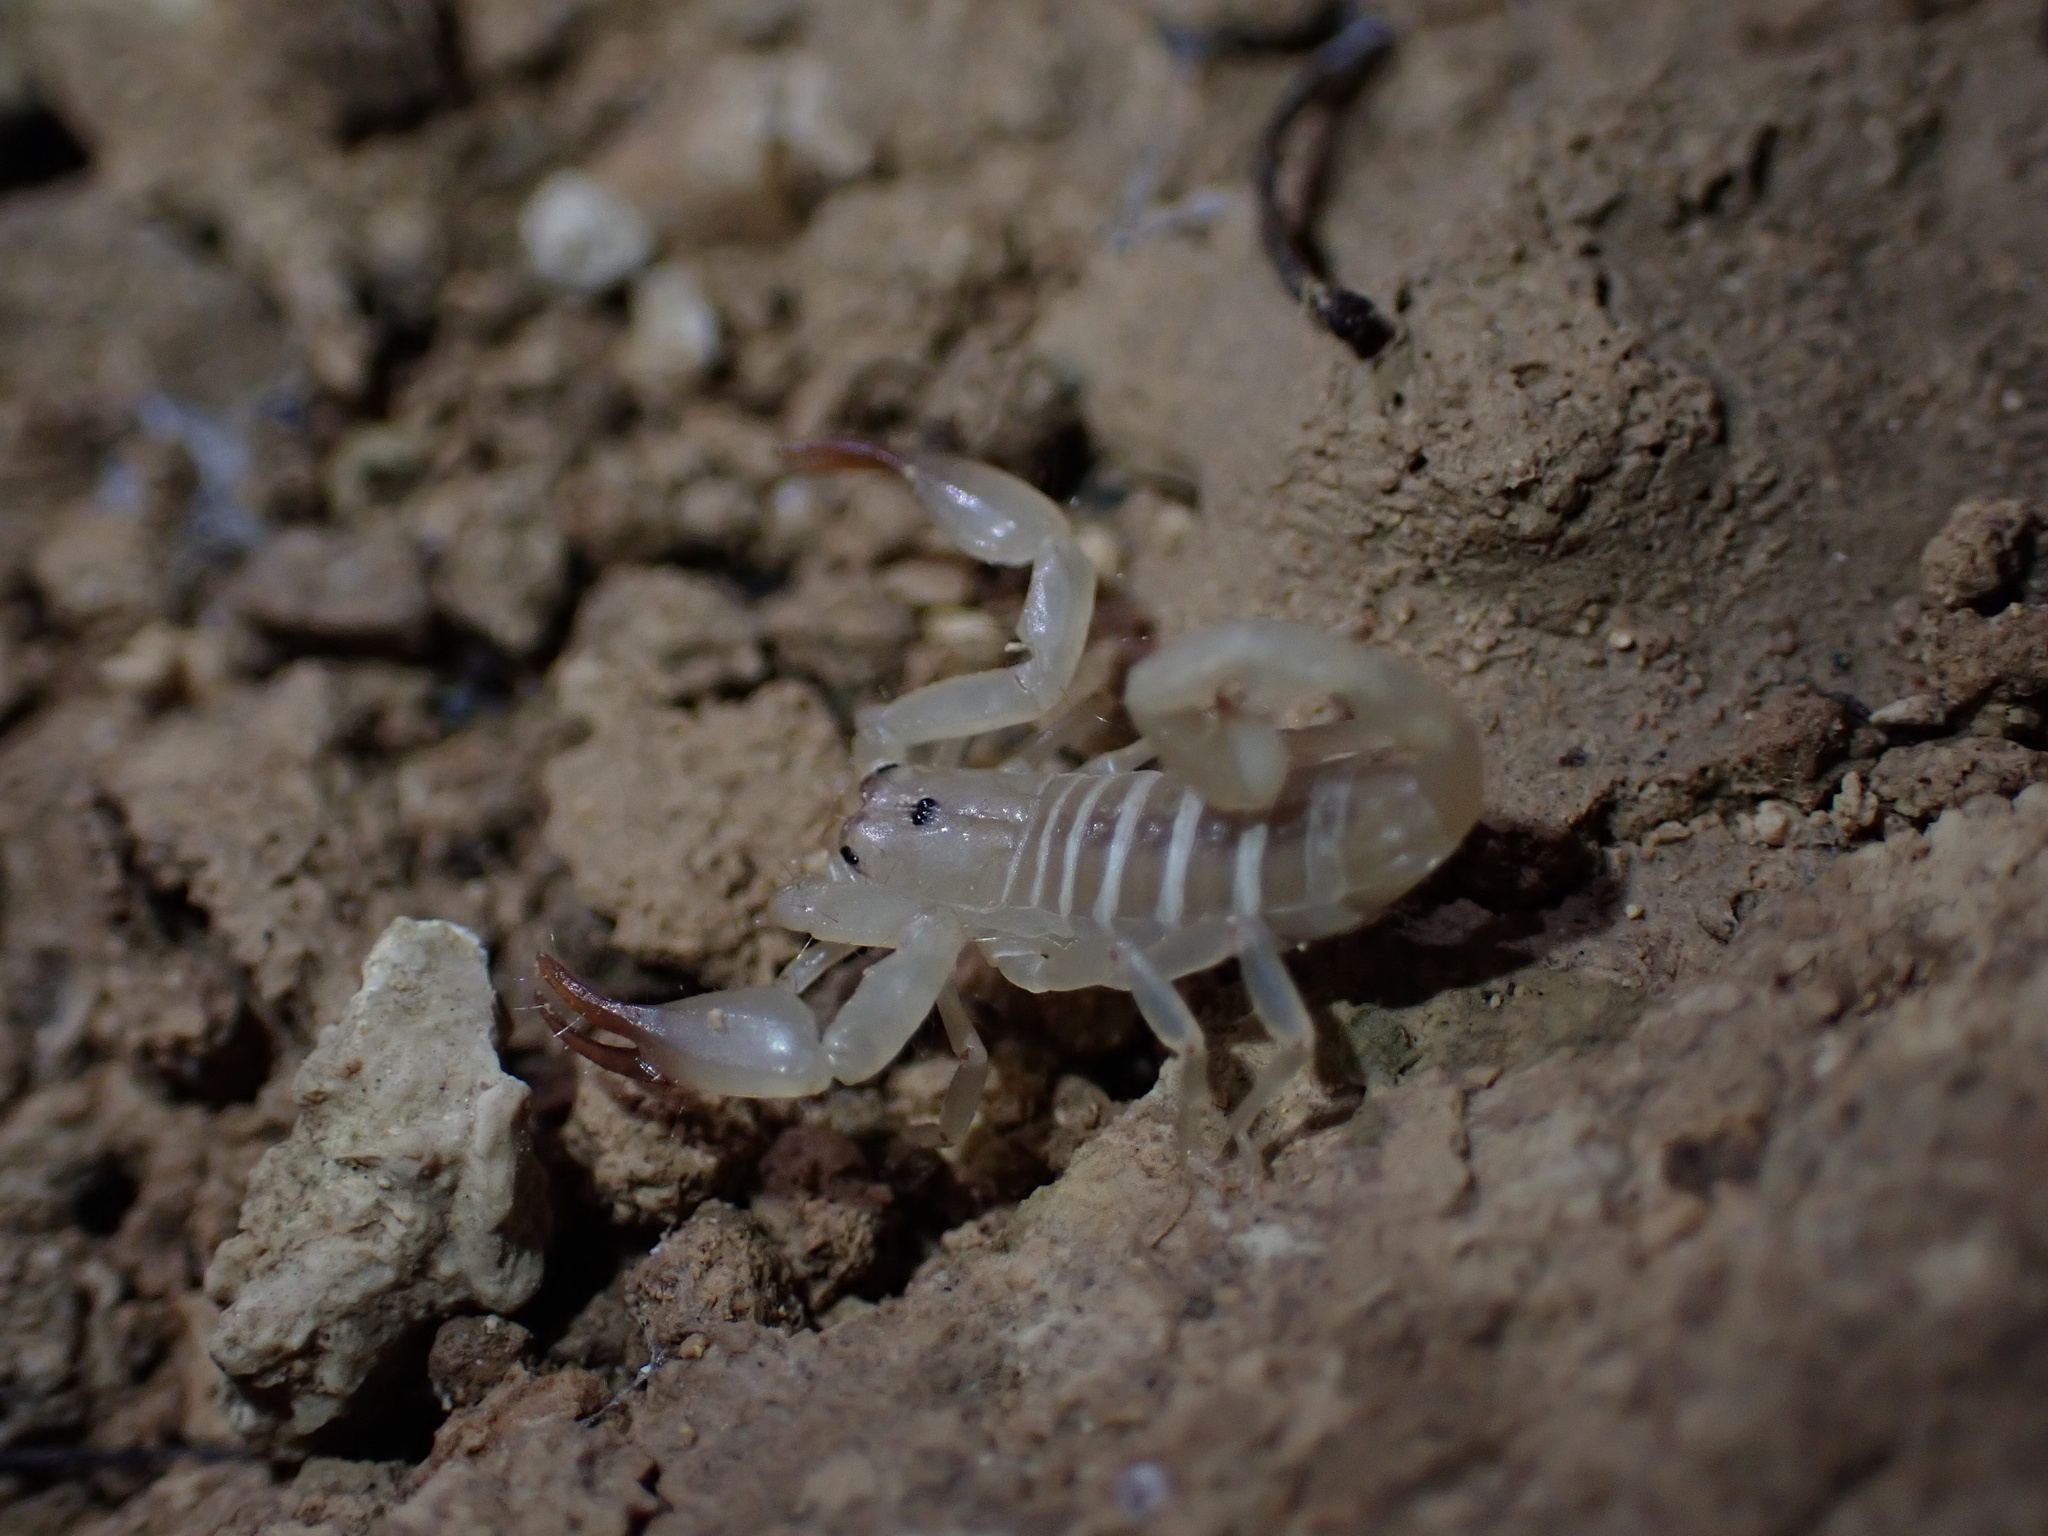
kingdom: Animalia
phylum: Arthropoda
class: Arachnida
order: Scorpiones
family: Hemiscorpiidae
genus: Hemiscorpius
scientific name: Hemiscorpius lepturus
